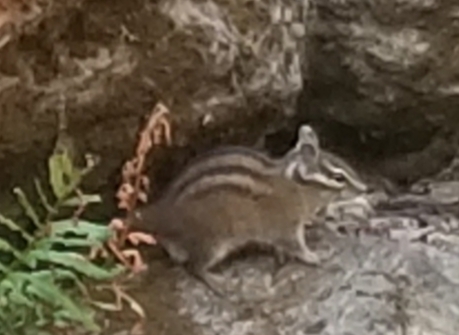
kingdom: Animalia
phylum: Chordata
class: Mammalia
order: Rodentia
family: Sciuridae
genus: Tamias
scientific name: Tamias townsendii
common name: Townsend's chipmunk
